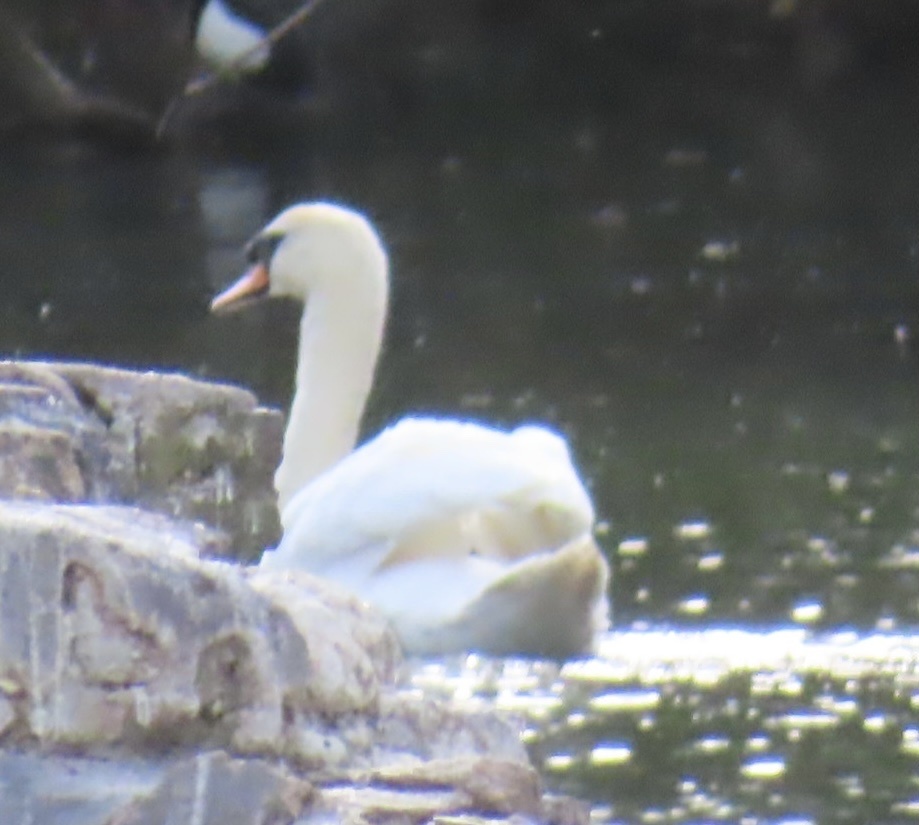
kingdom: Animalia
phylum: Chordata
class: Aves
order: Anseriformes
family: Anatidae
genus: Cygnus
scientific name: Cygnus olor
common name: Mute swan
